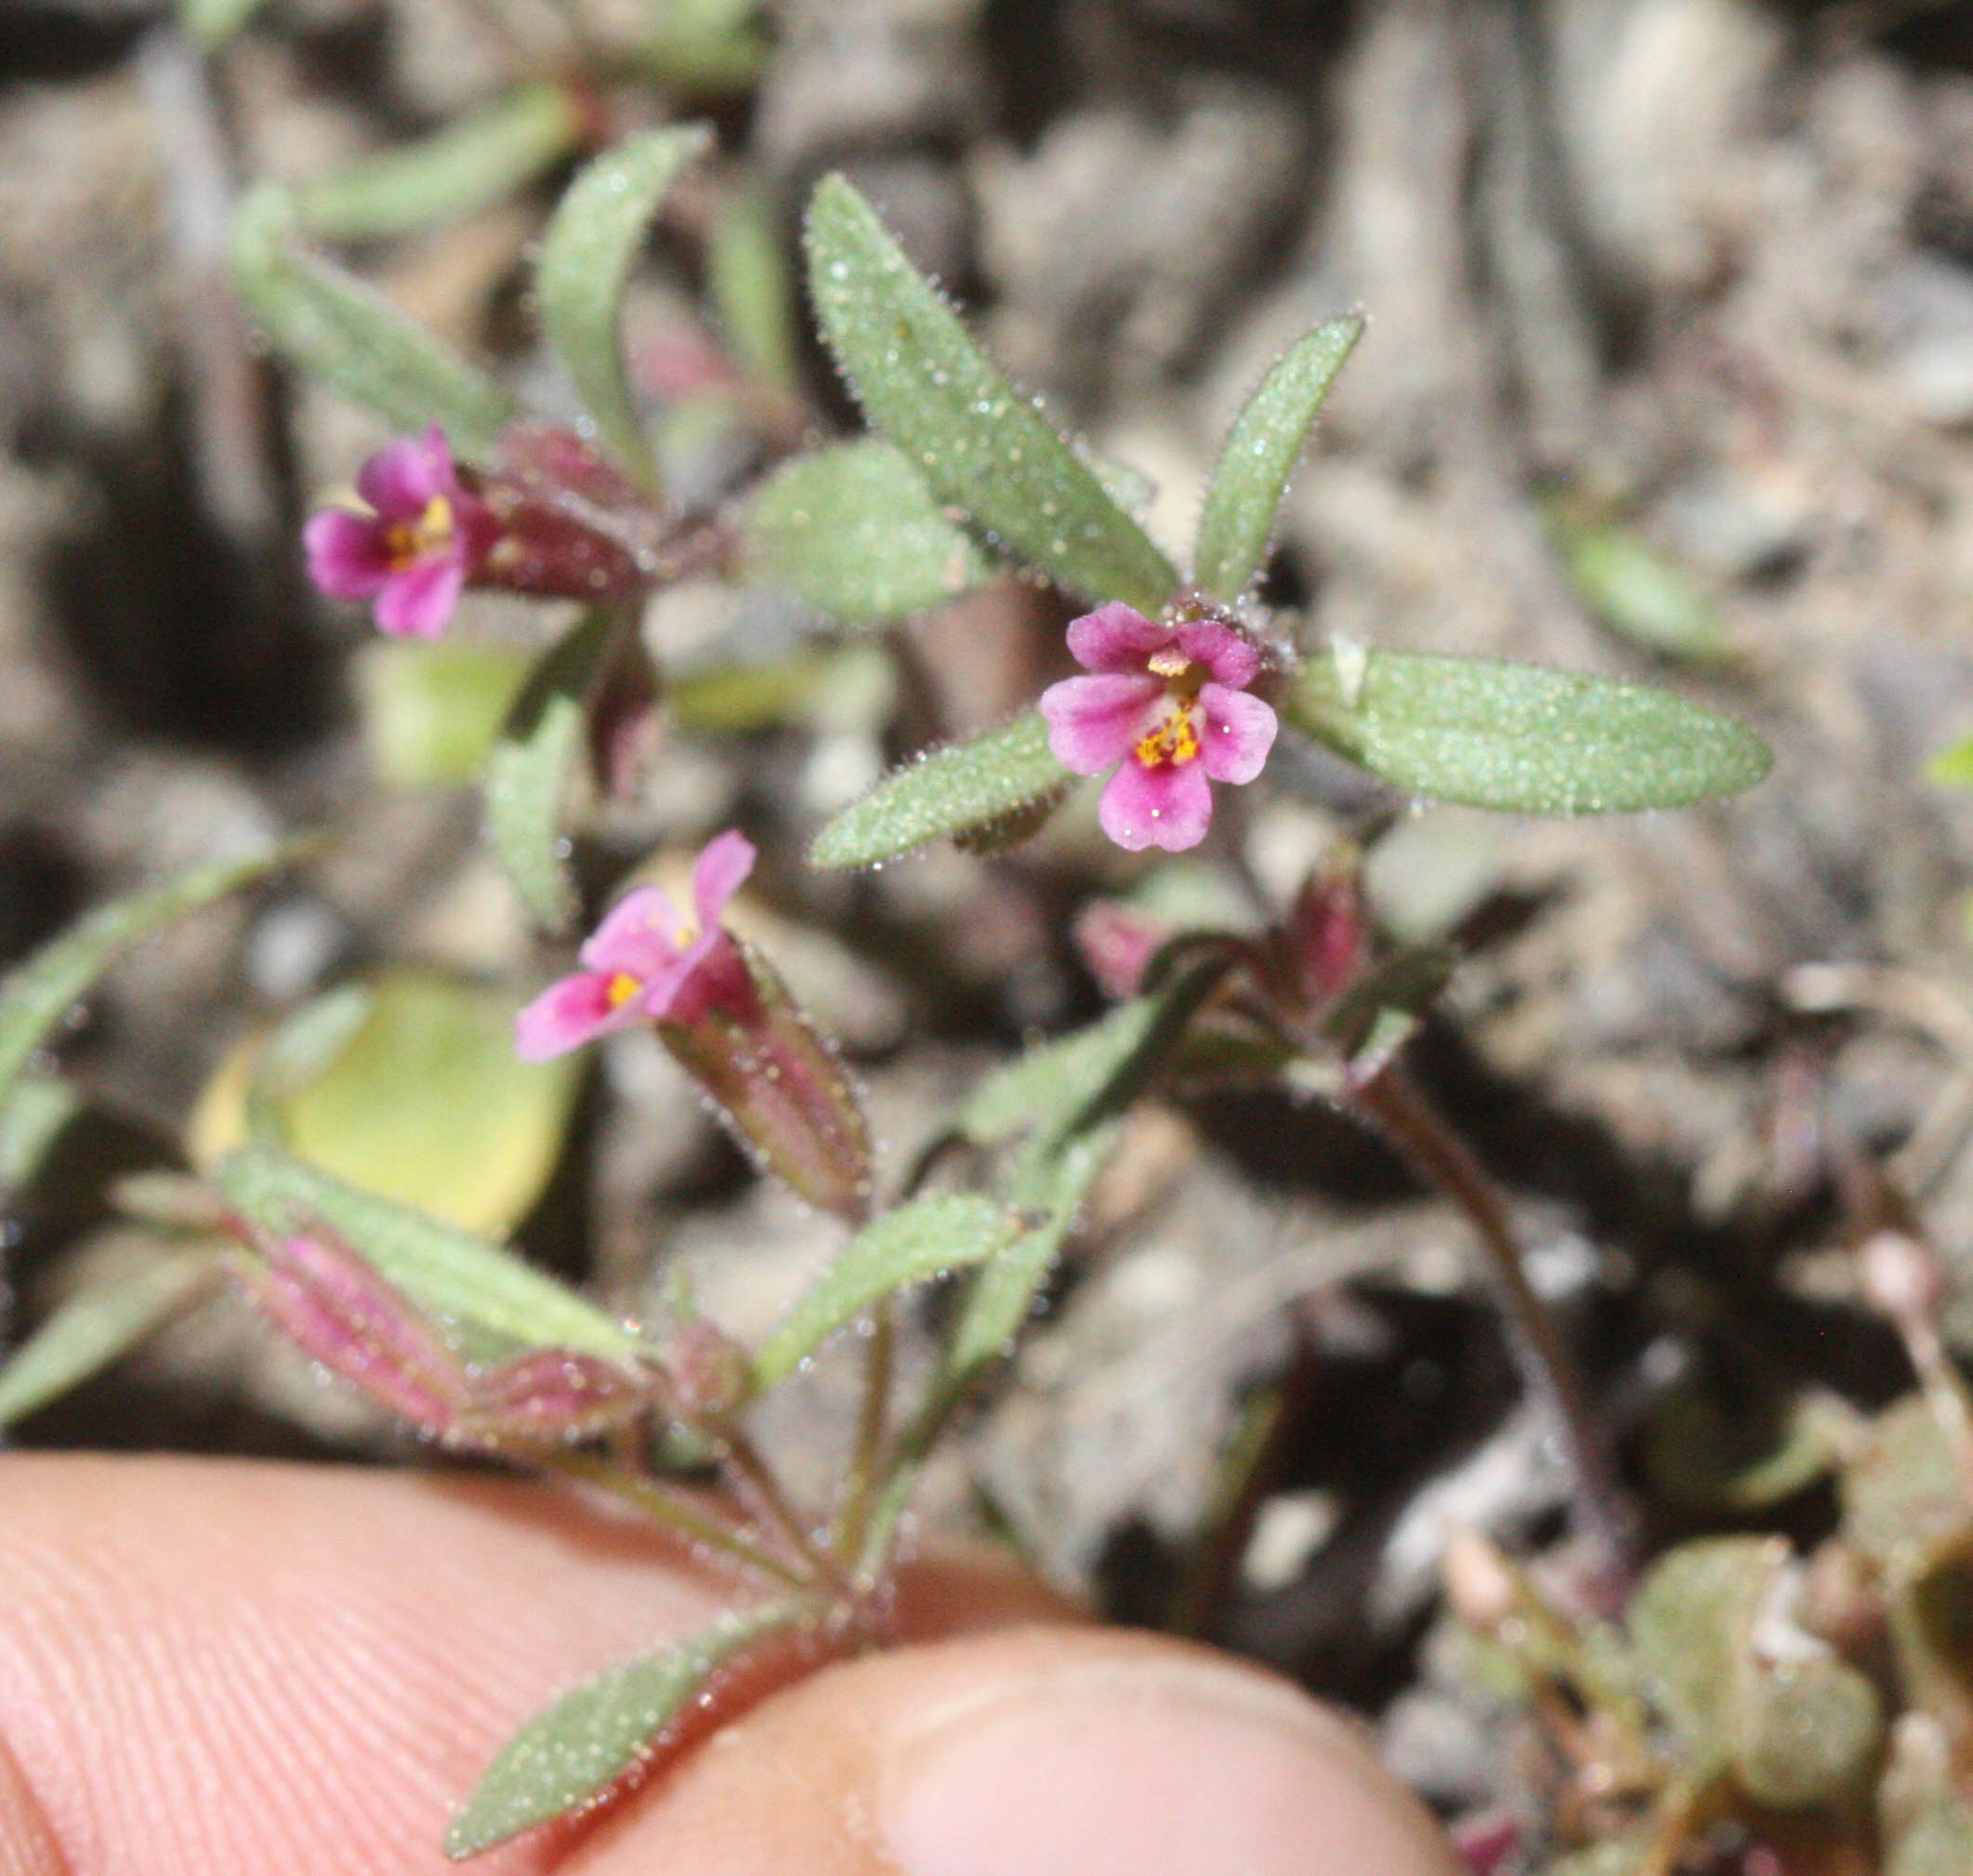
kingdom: Plantae
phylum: Tracheophyta
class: Magnoliopsida
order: Lamiales
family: Phrymaceae
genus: Erythranthe
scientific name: Erythranthe breweri
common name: Brewer's monkeyflower
